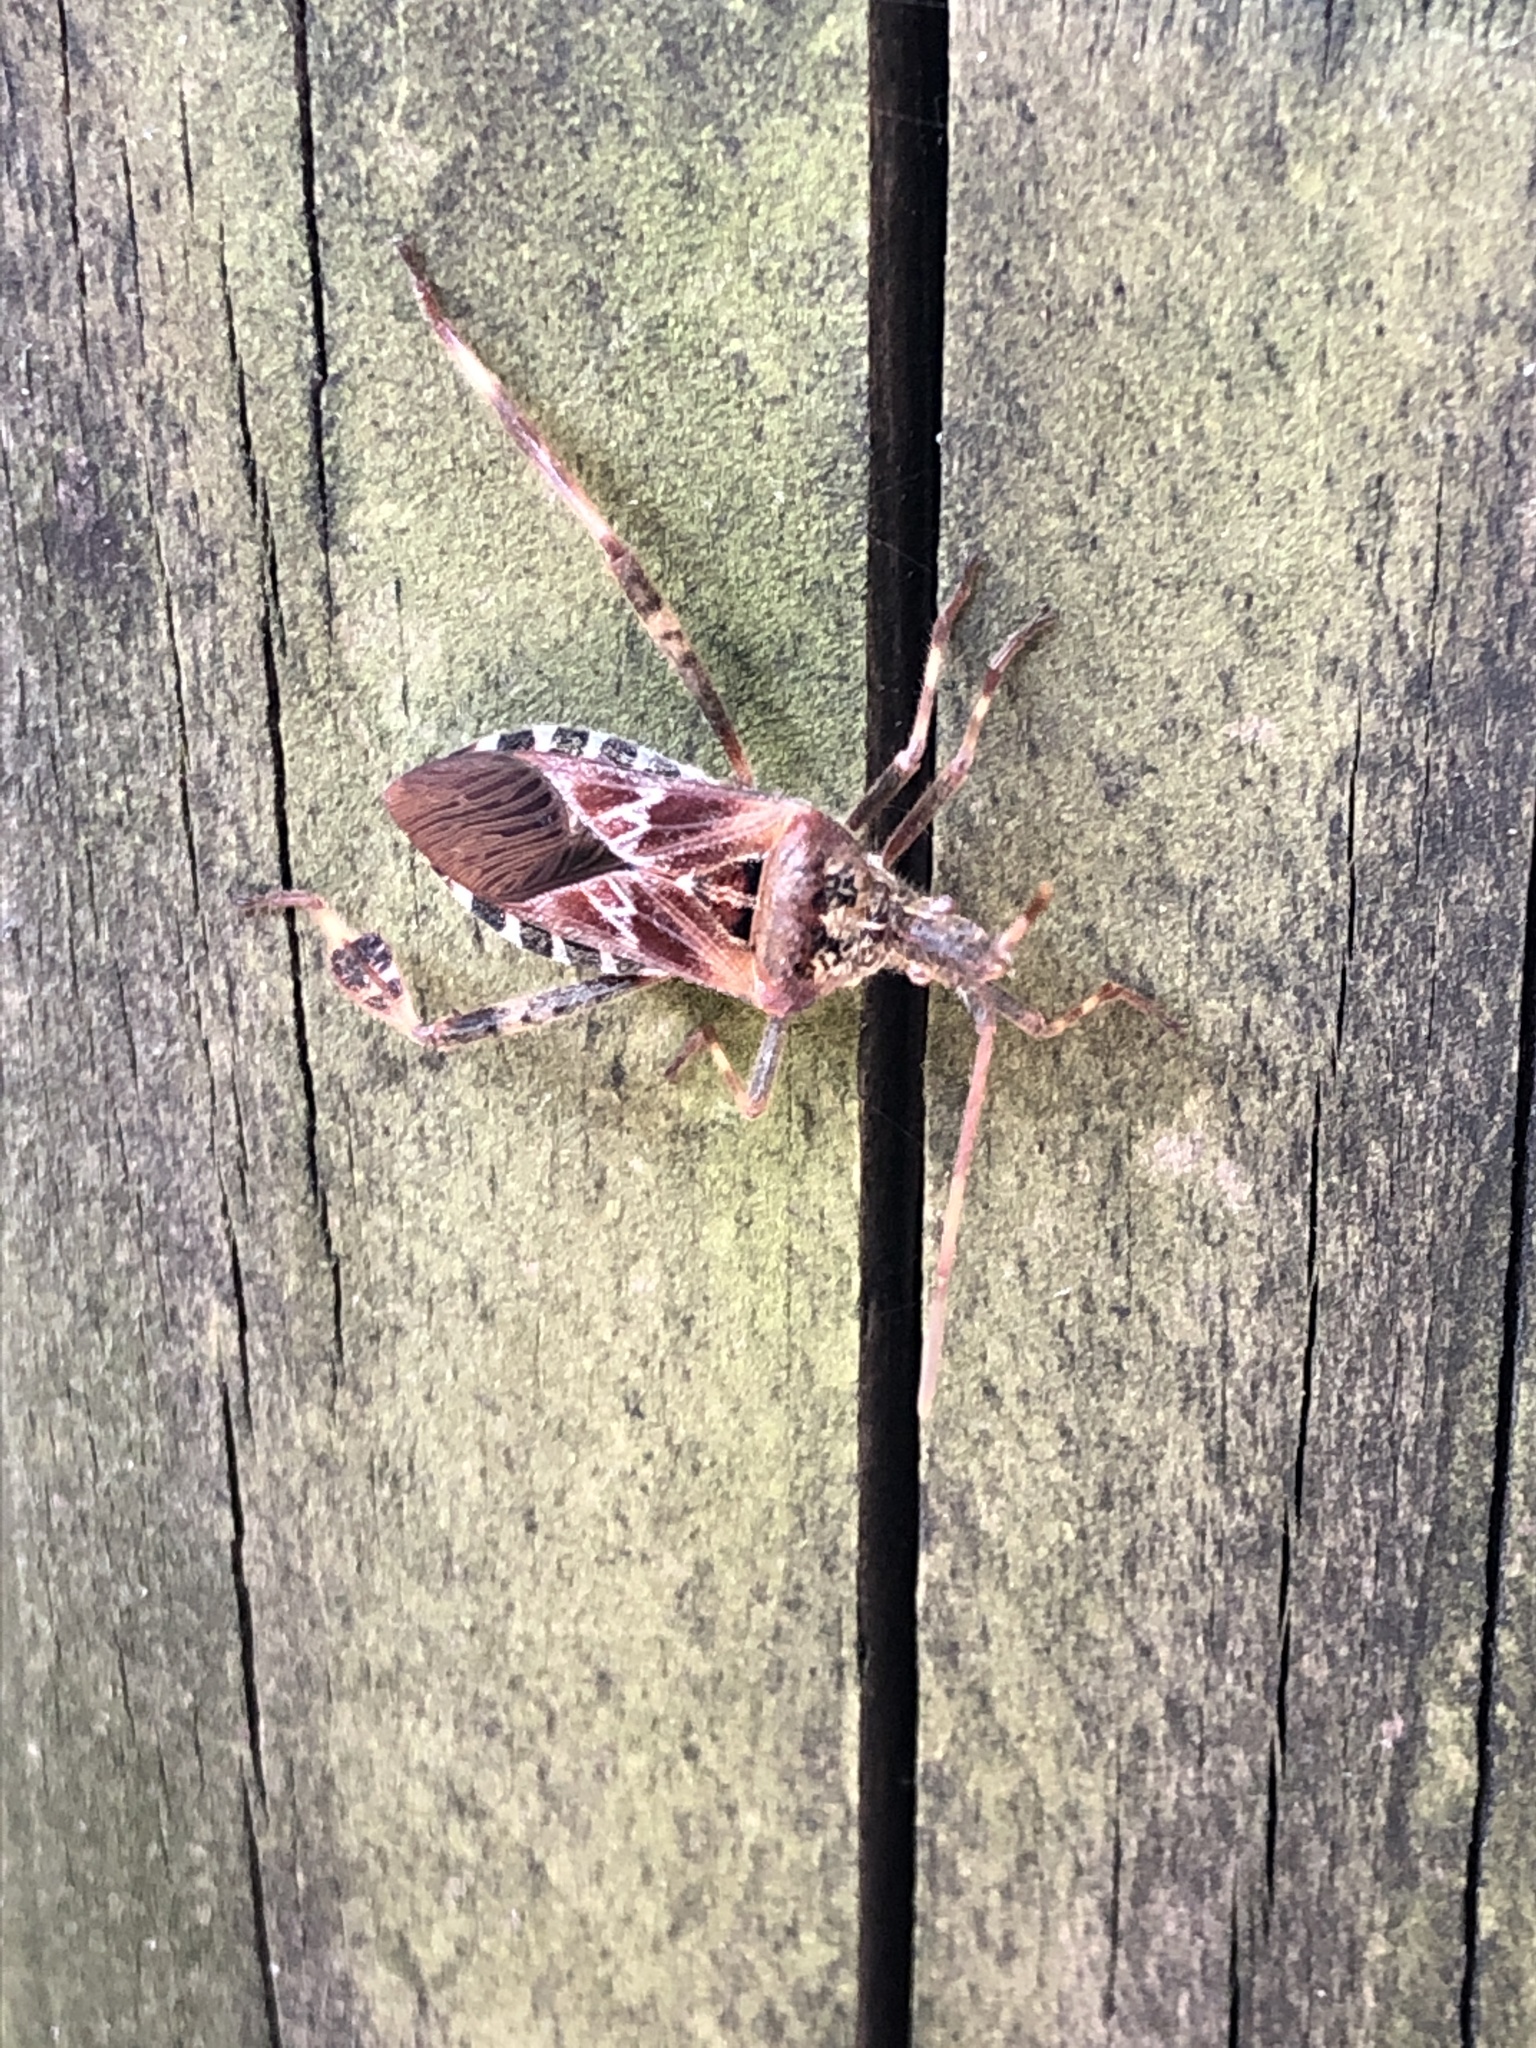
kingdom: Animalia
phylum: Arthropoda
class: Insecta
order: Hemiptera
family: Coreidae
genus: Leptoglossus
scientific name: Leptoglossus occidentalis
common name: Western conifer-seed bug
